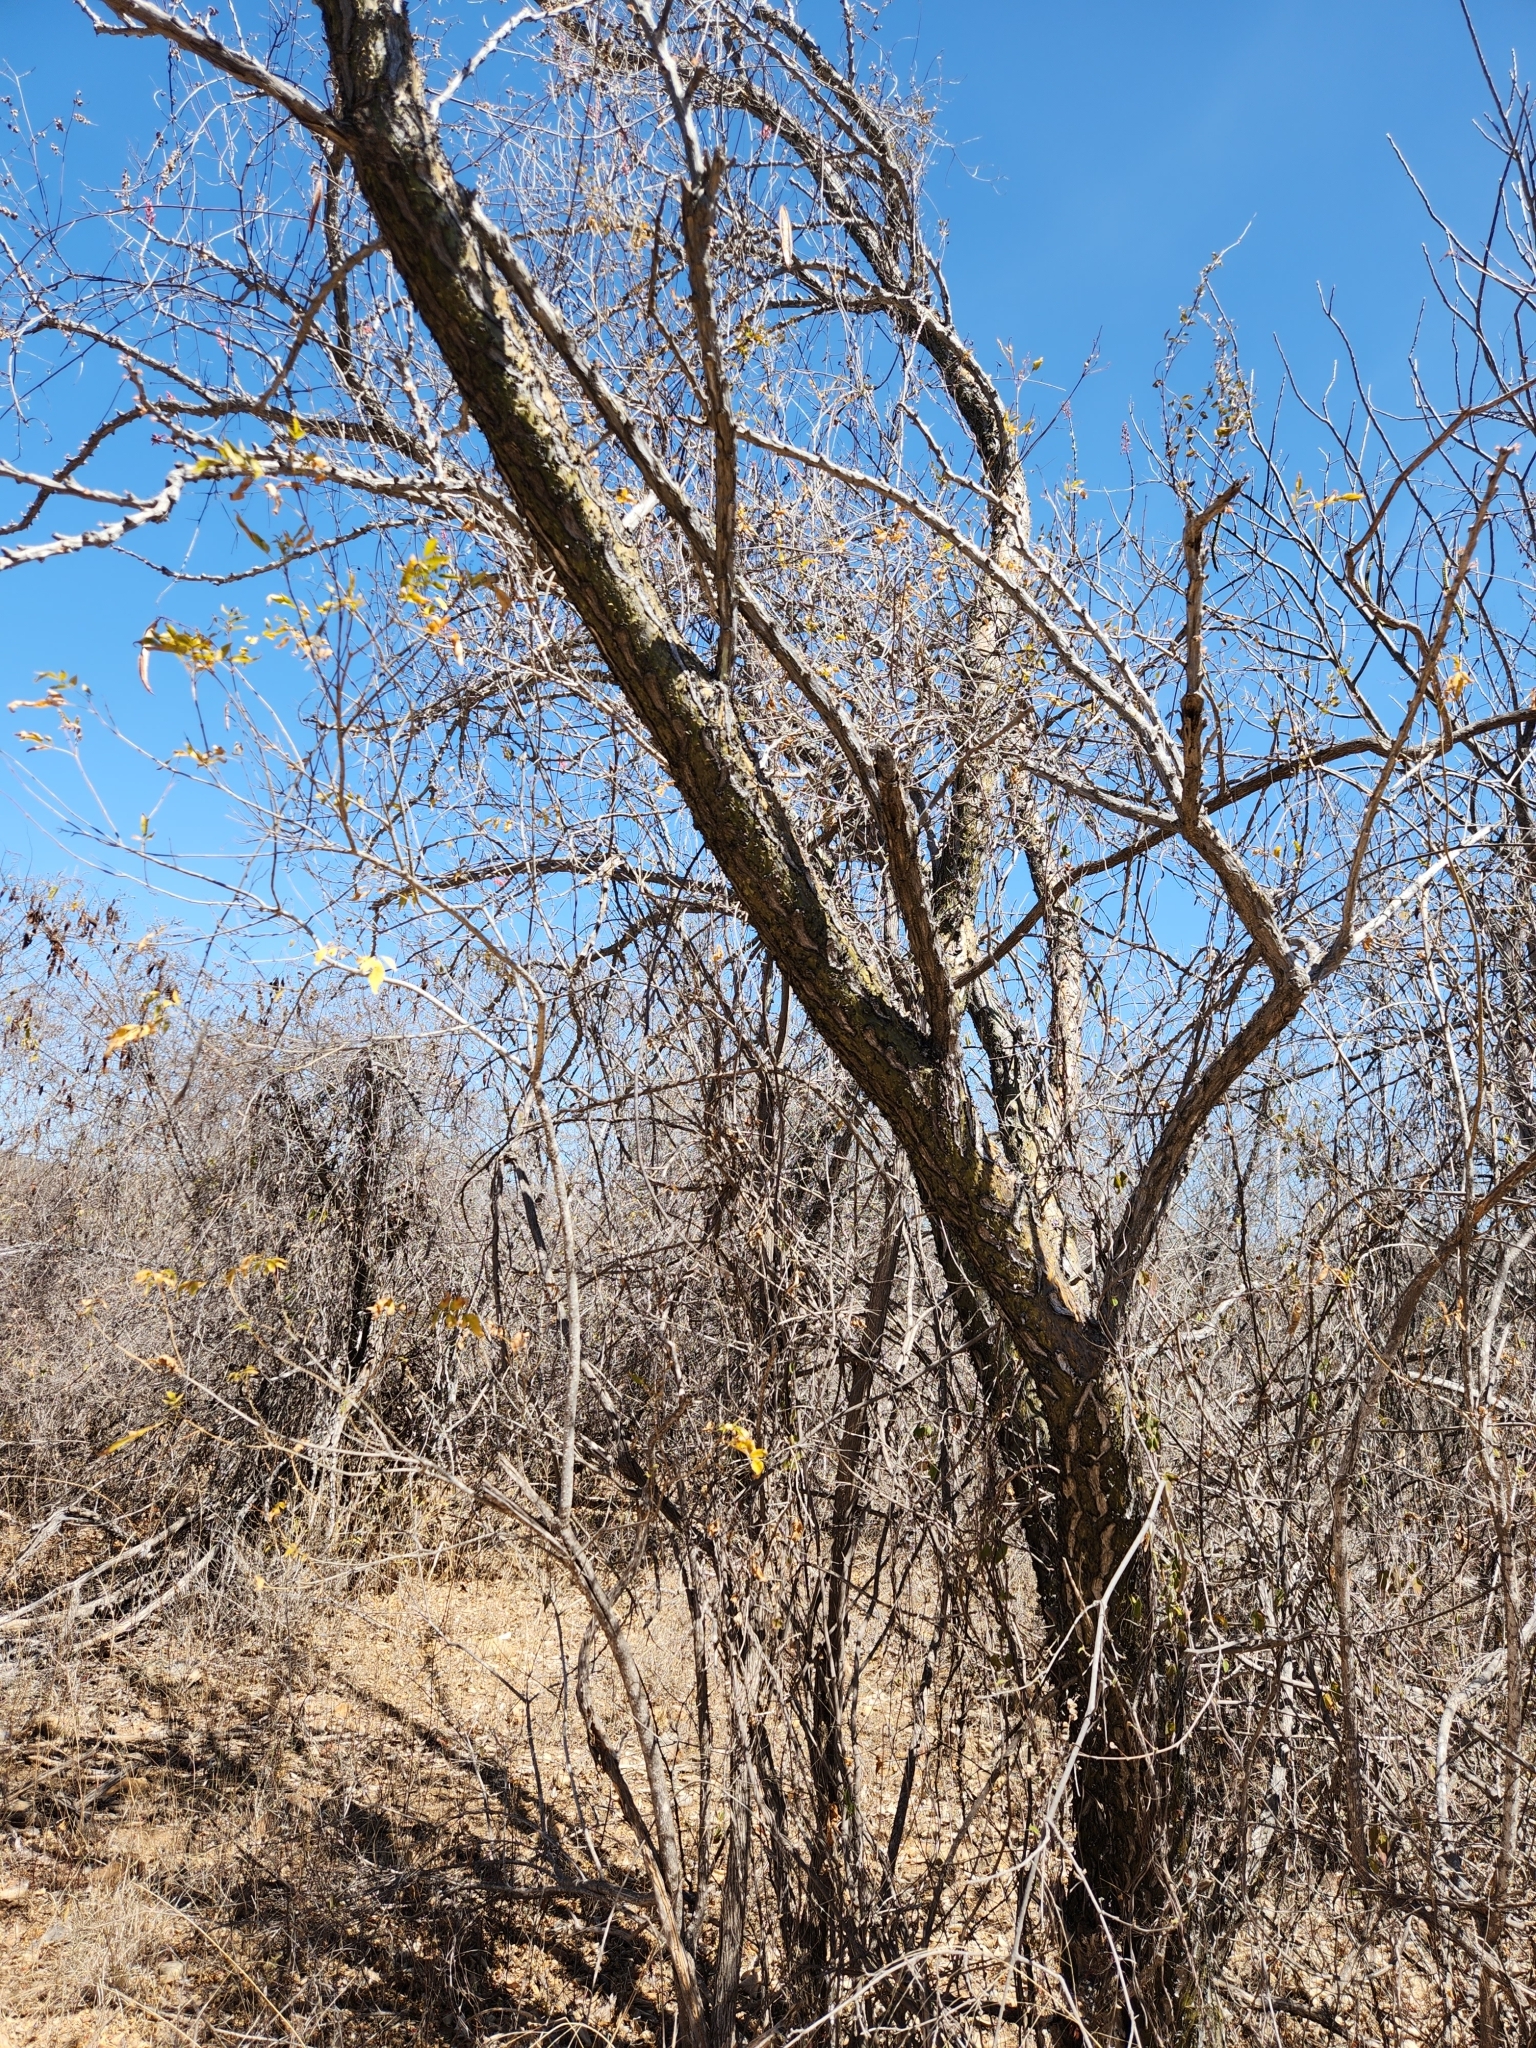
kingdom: Plantae
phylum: Tracheophyta
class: Magnoliopsida
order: Ericales
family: Fouquieriaceae
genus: Fouquieria
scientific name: Fouquieria diguetii
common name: Adam's tree
